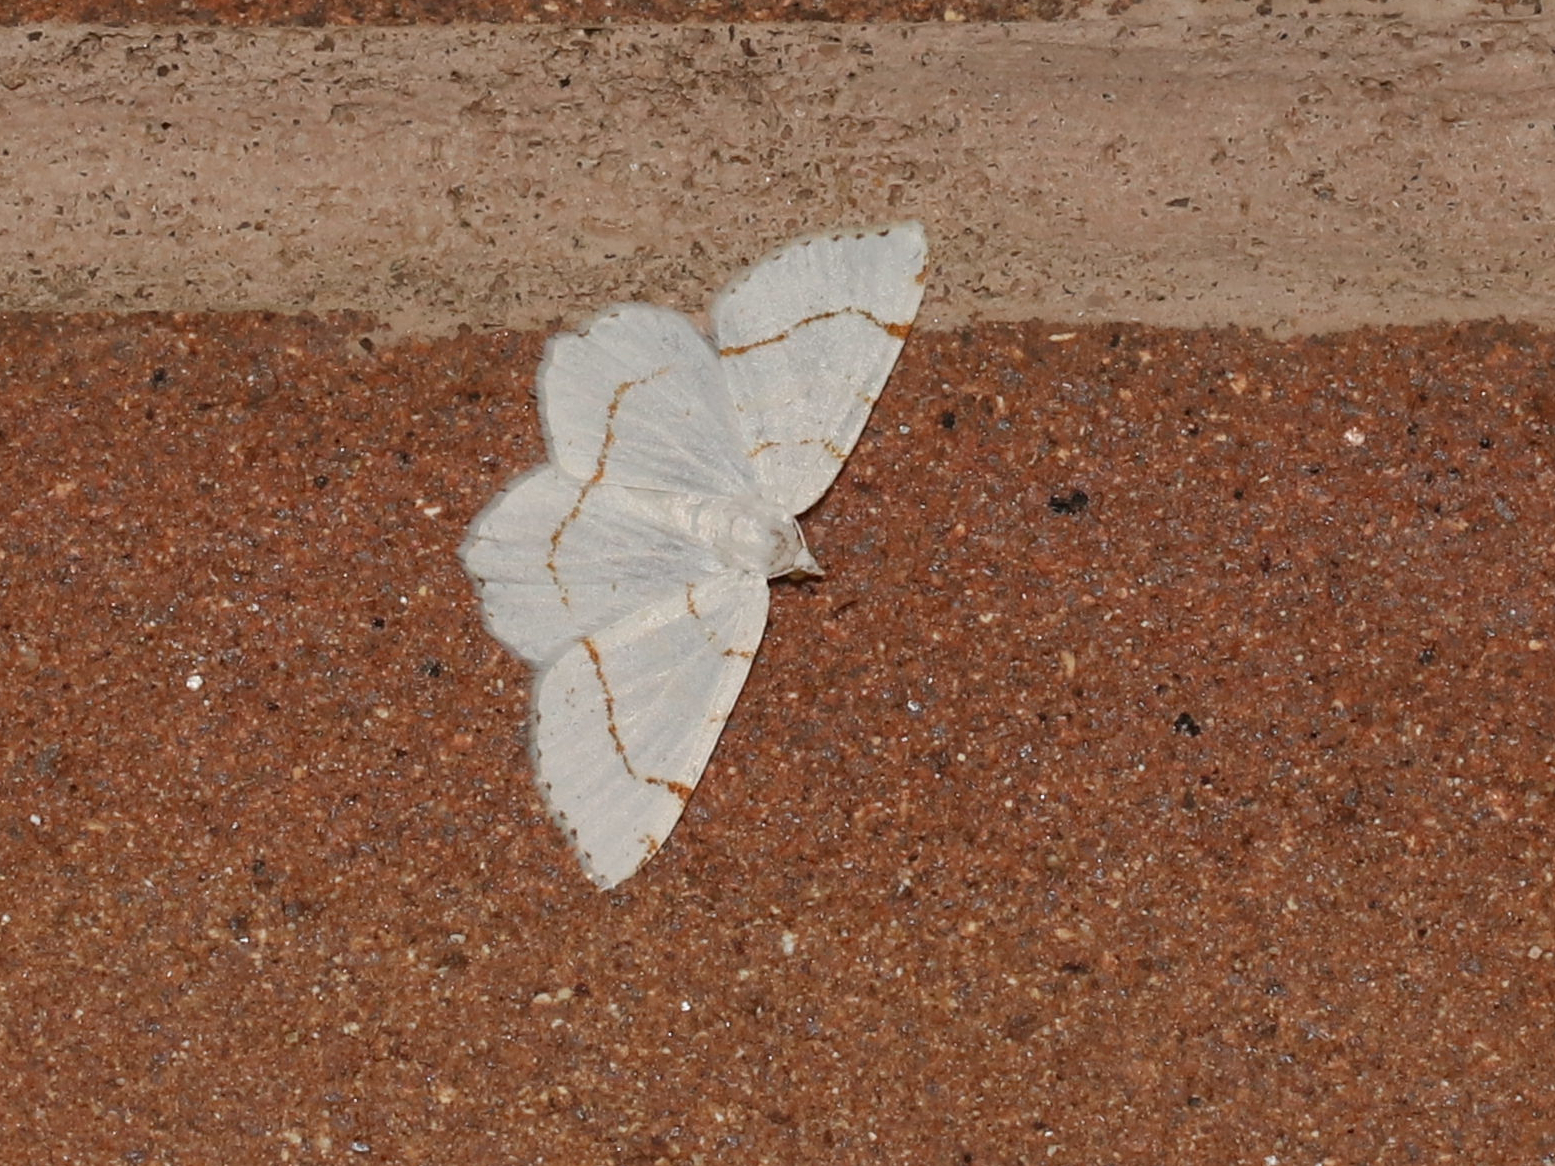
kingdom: Animalia
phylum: Arthropoda
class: Insecta
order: Lepidoptera
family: Geometridae
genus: Macaria
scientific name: Macaria pustularia
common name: Lesser maple spanworm moth
